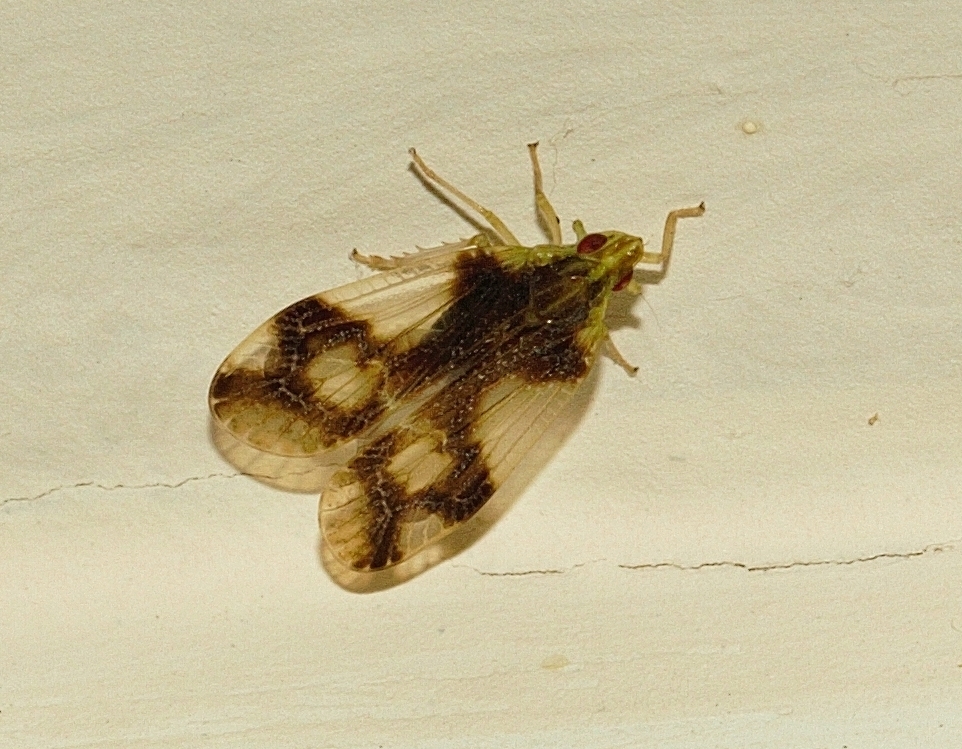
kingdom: Animalia
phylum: Arthropoda
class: Insecta
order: Hemiptera
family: Tropiduchidae
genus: Numicia
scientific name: Numicia insignis
